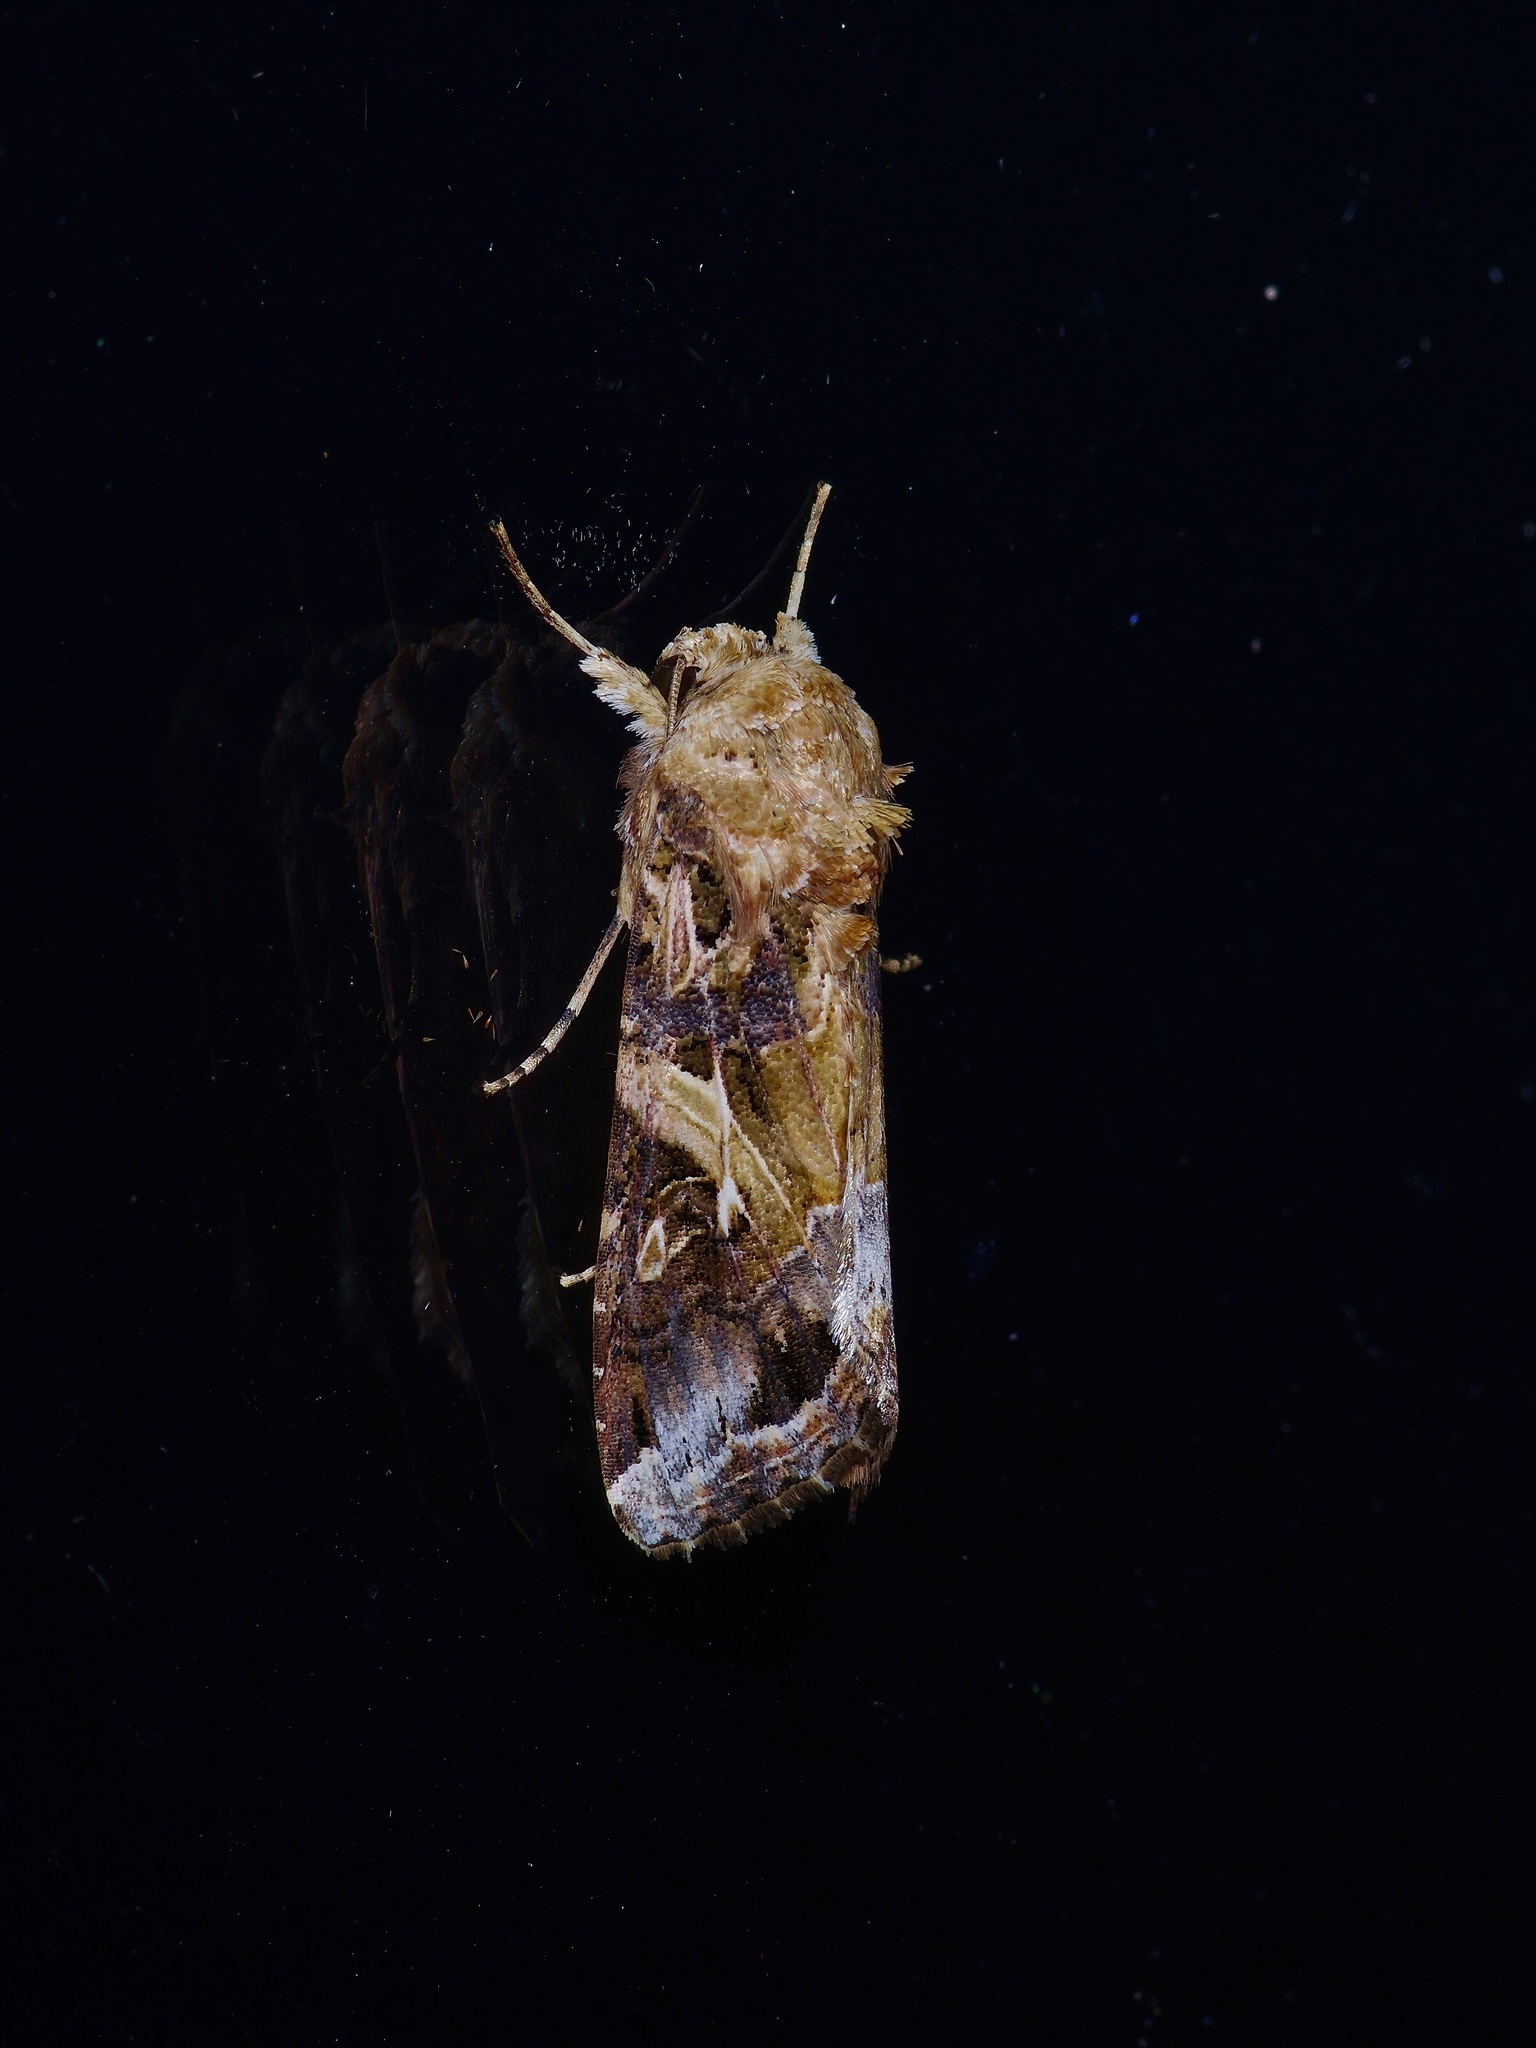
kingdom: Animalia
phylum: Arthropoda
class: Insecta
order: Lepidoptera
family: Noctuidae
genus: Spodoptera
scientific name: Spodoptera ornithogalli
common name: Yellow-striped armyworm
